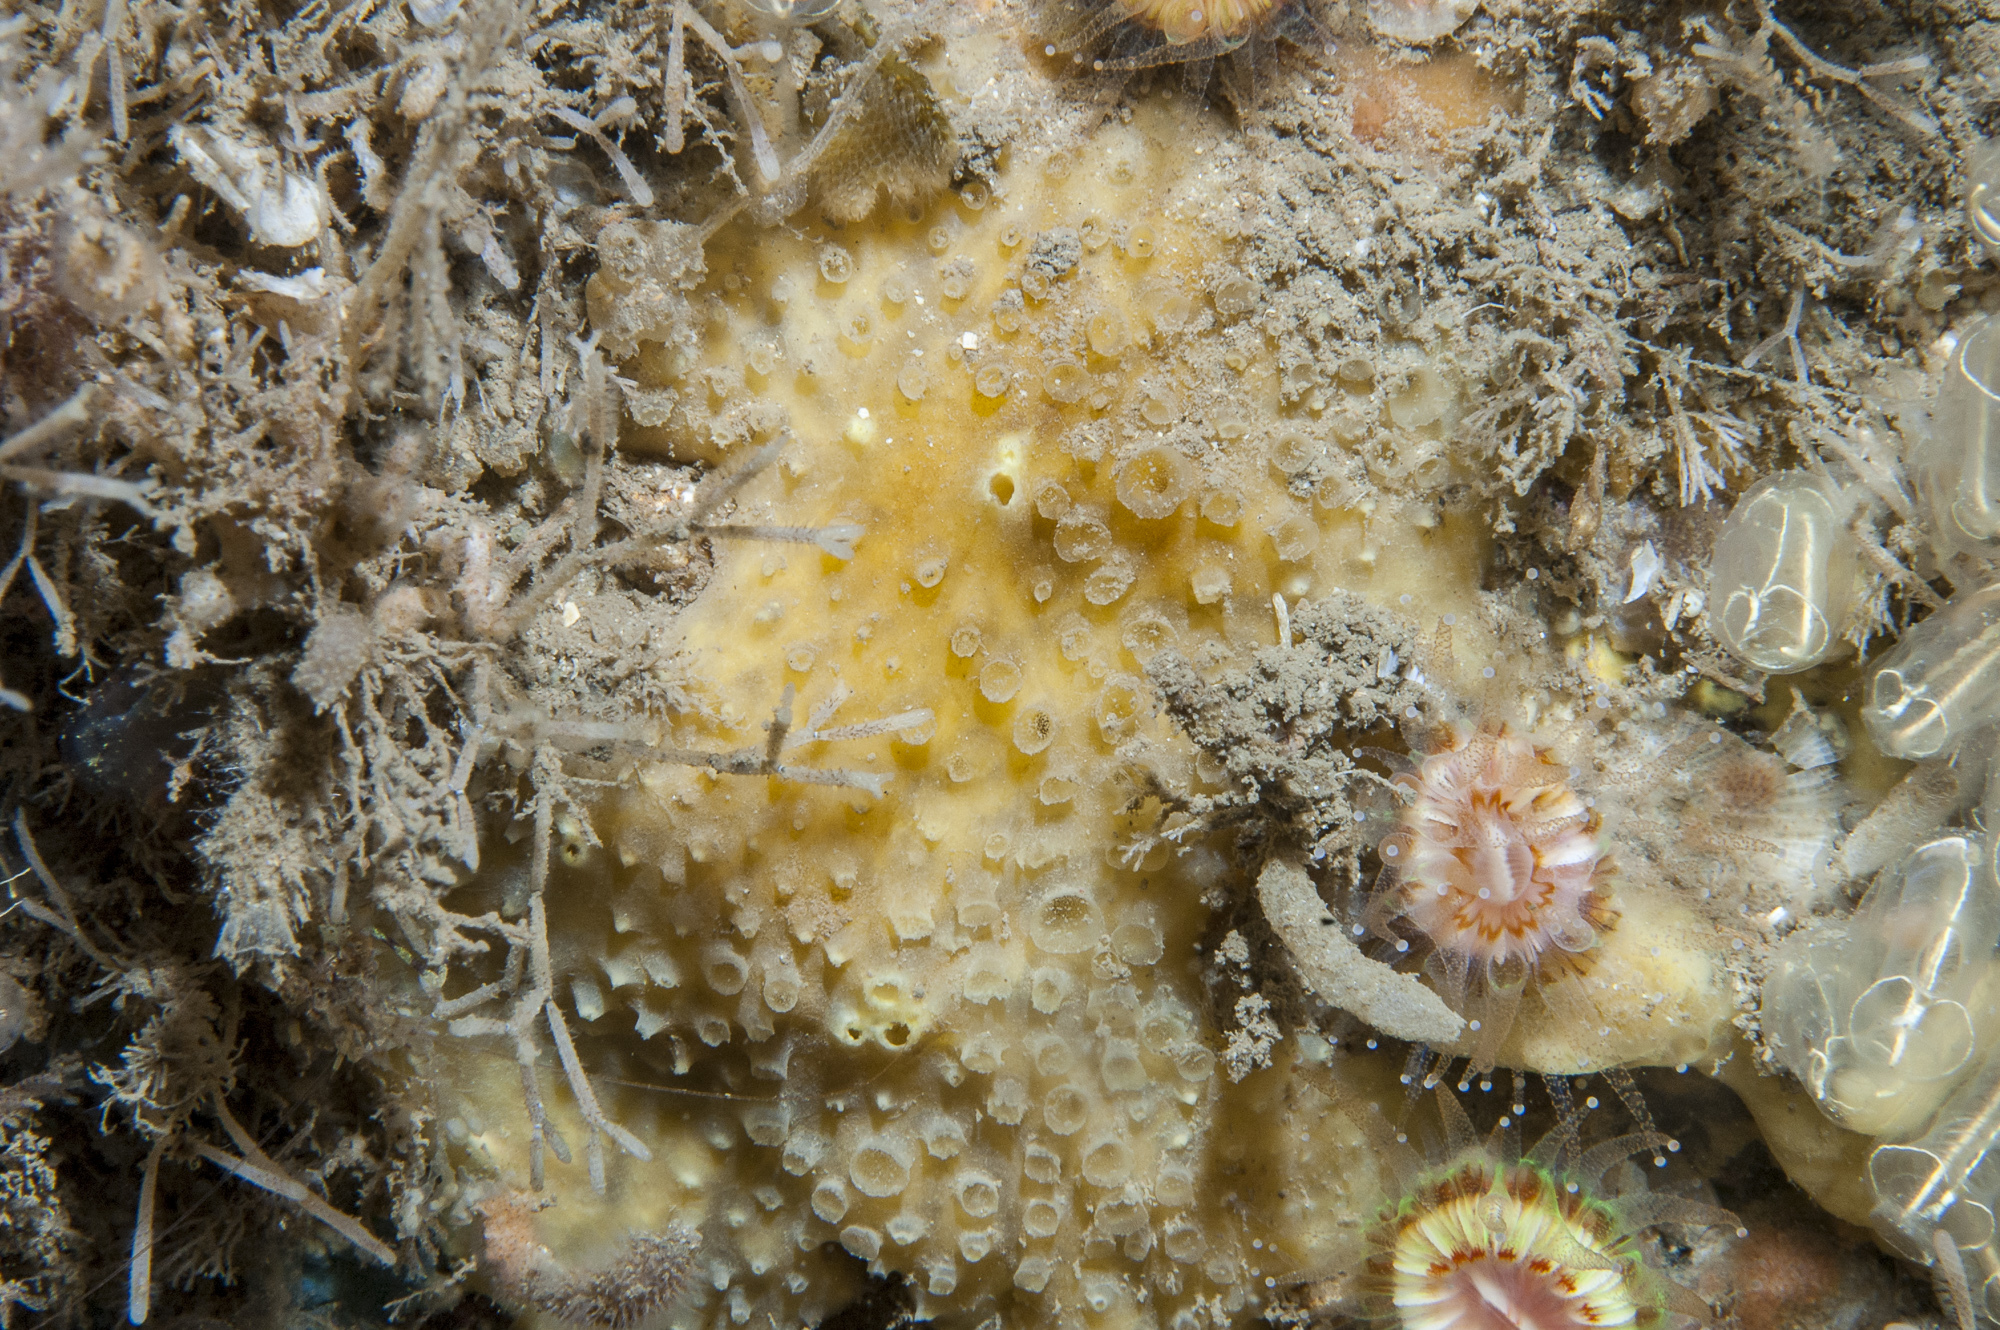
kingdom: Animalia
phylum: Porifera
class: Demospongiae
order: Poecilosclerida
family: Coelosphaeridae
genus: Lissodendoryx
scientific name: Lissodendoryx jenjonesae
